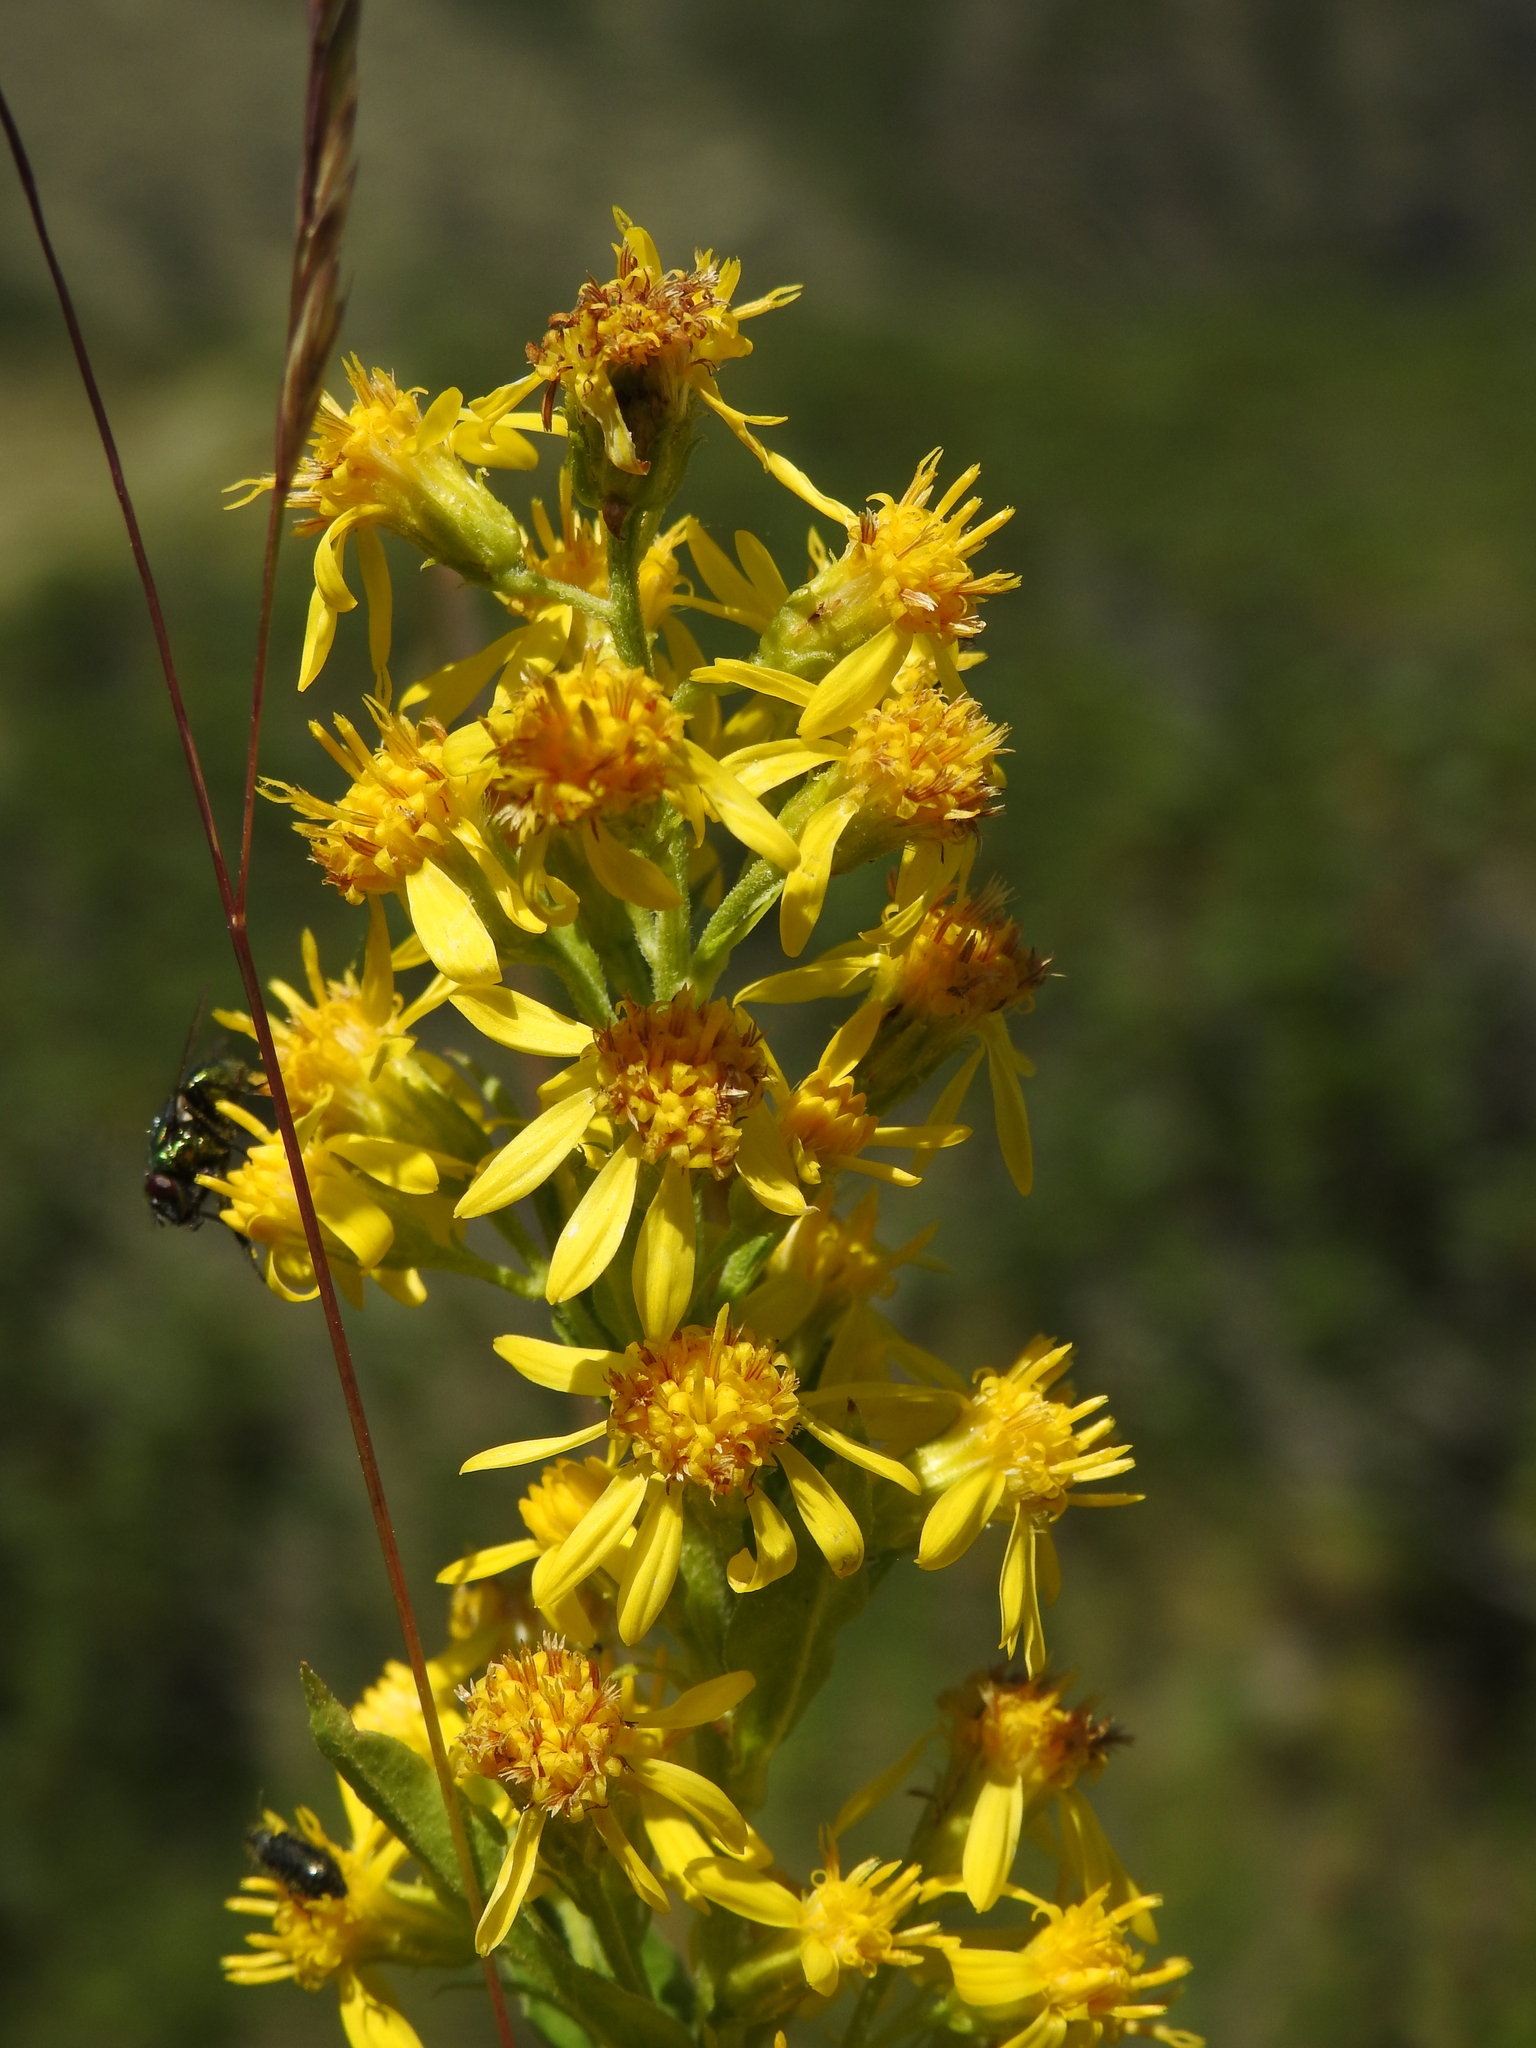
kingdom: Plantae
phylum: Tracheophyta
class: Magnoliopsida
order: Asterales
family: Asteraceae
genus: Solidago
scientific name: Solidago virgaurea
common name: Goldenrod
